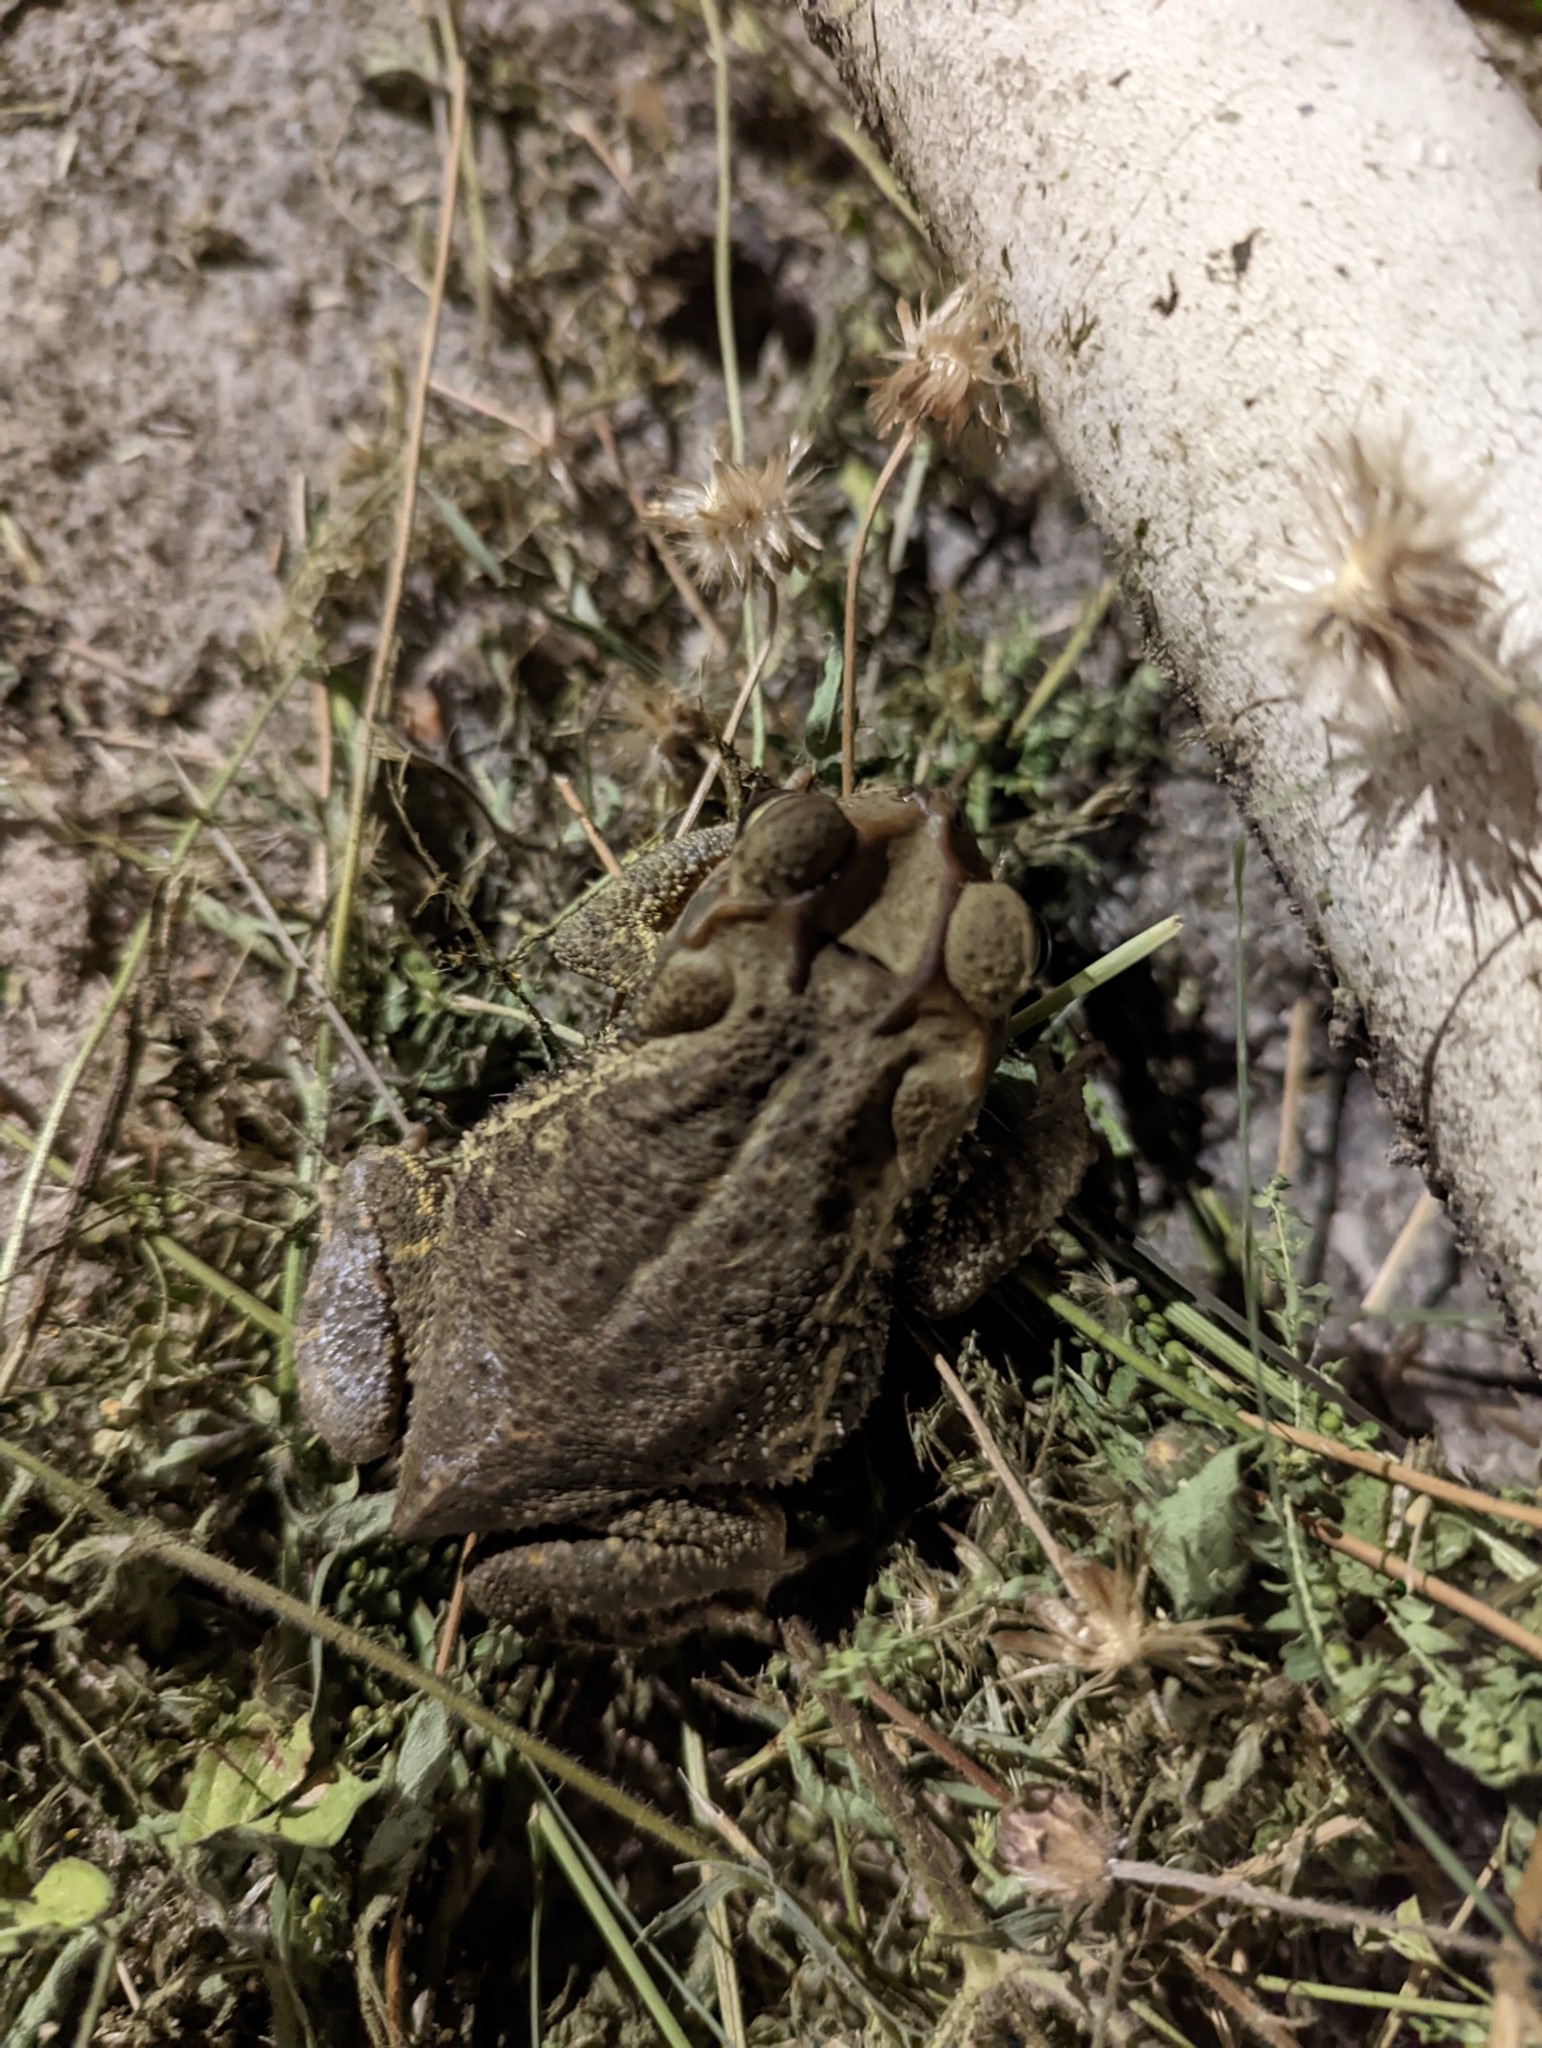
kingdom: Animalia
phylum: Chordata
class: Amphibia
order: Anura
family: Bufonidae
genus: Incilius
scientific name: Incilius valliceps
